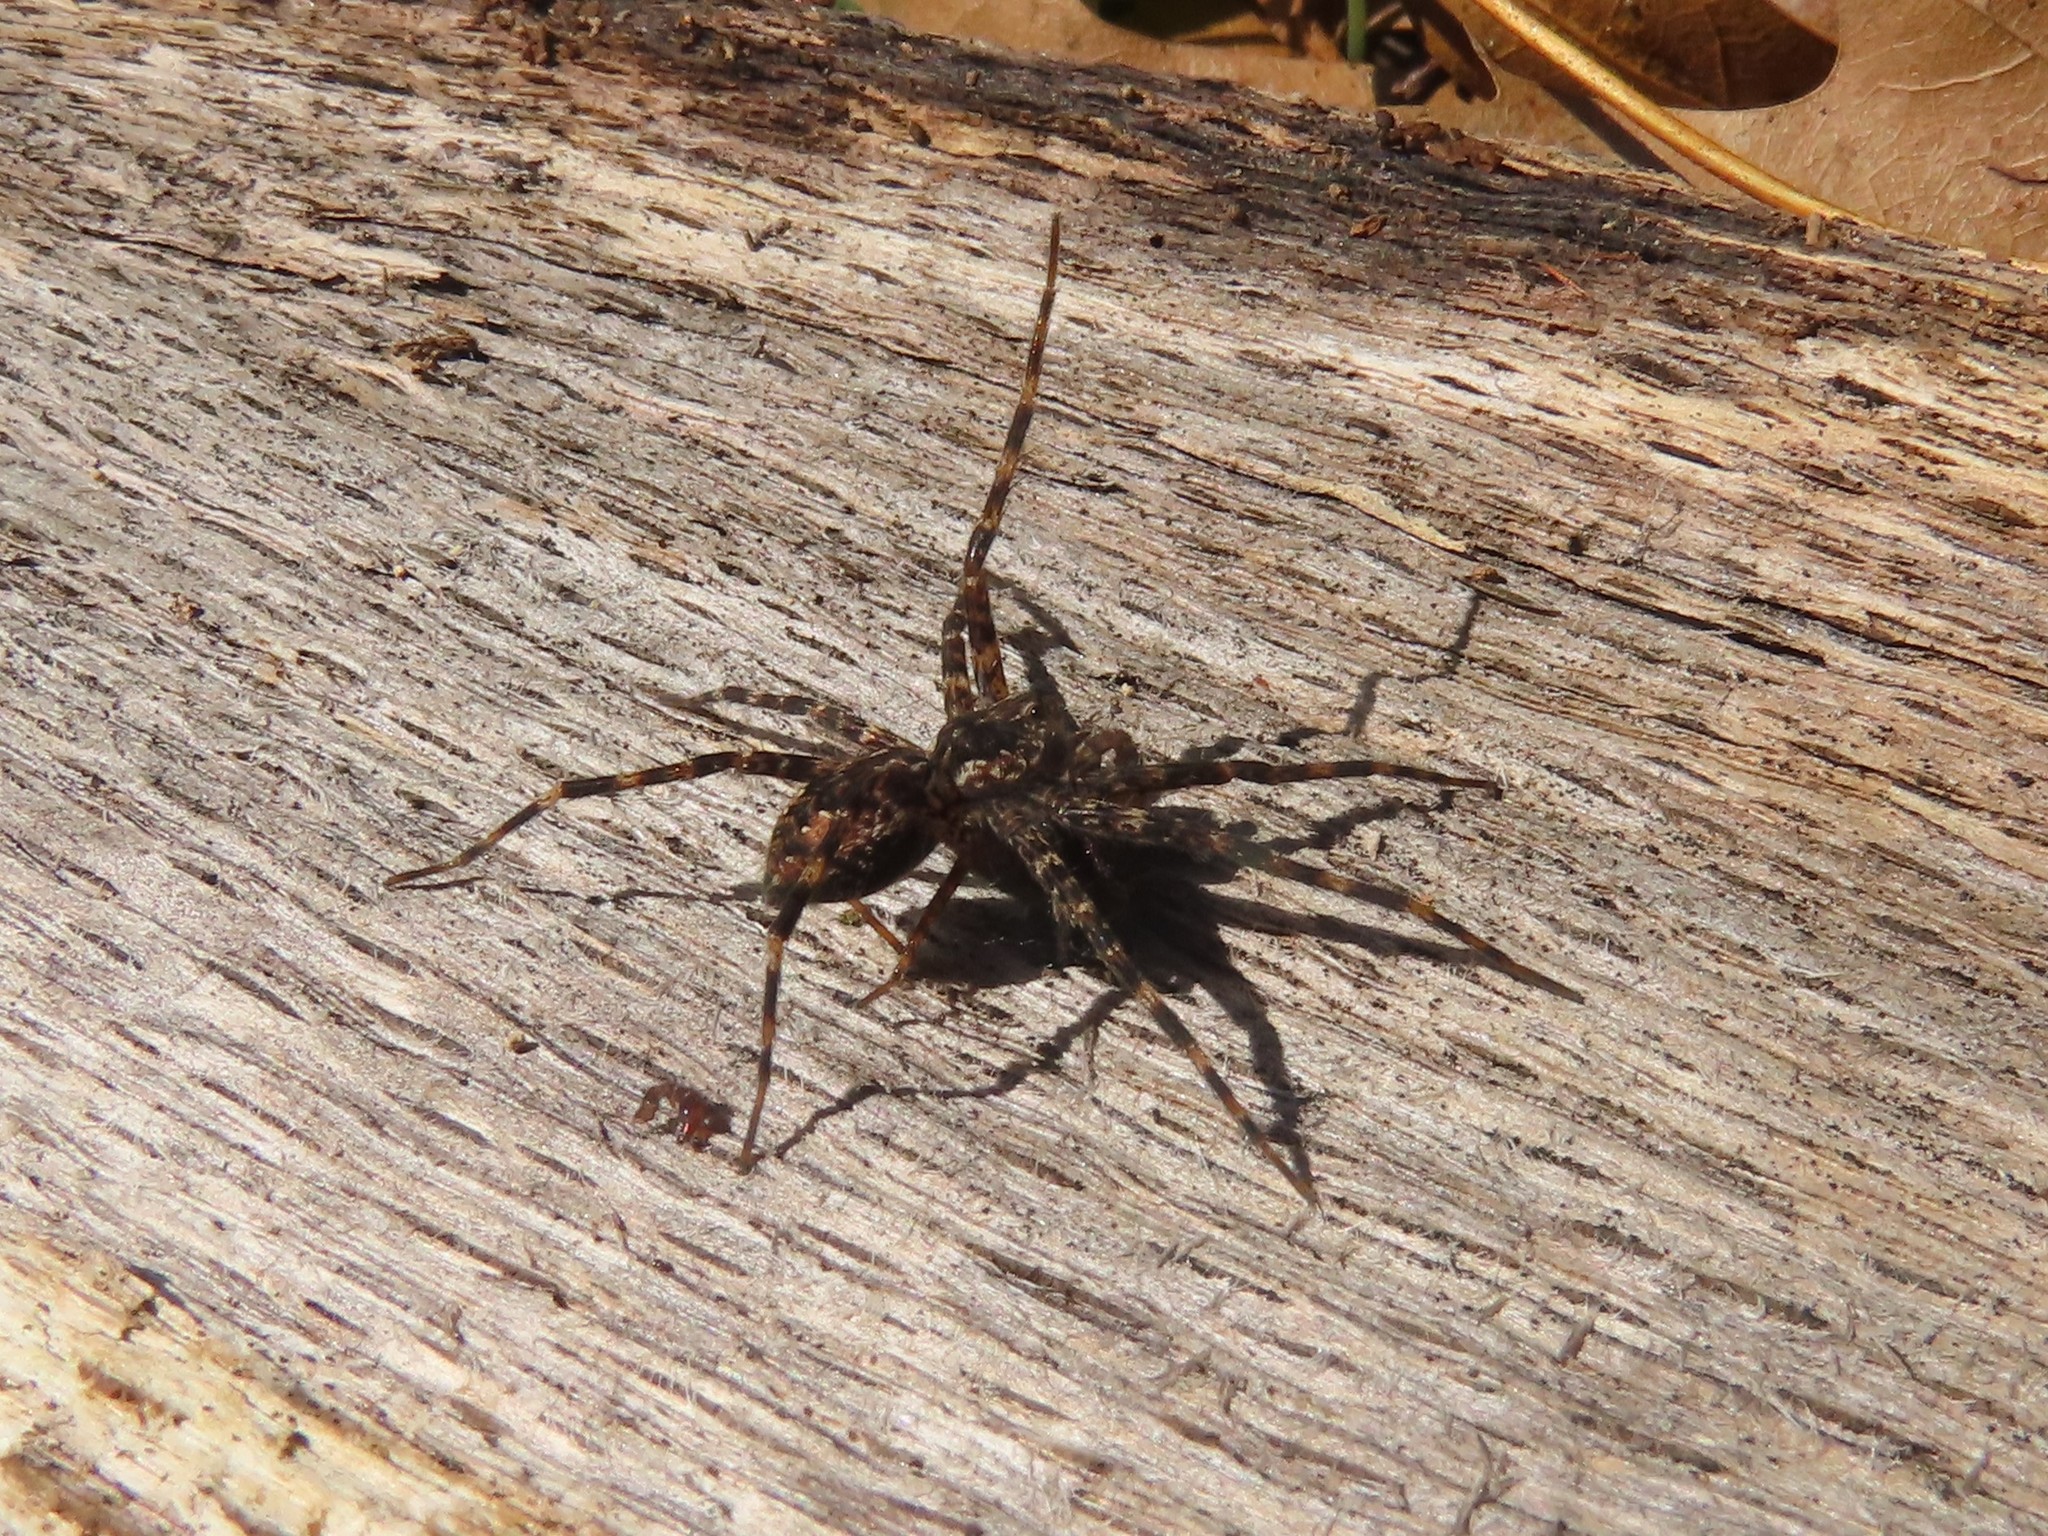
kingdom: Animalia
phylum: Arthropoda
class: Arachnida
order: Araneae
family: Pisauridae
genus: Dolomedes
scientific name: Dolomedes tenebrosus
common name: Dark fishing spider
